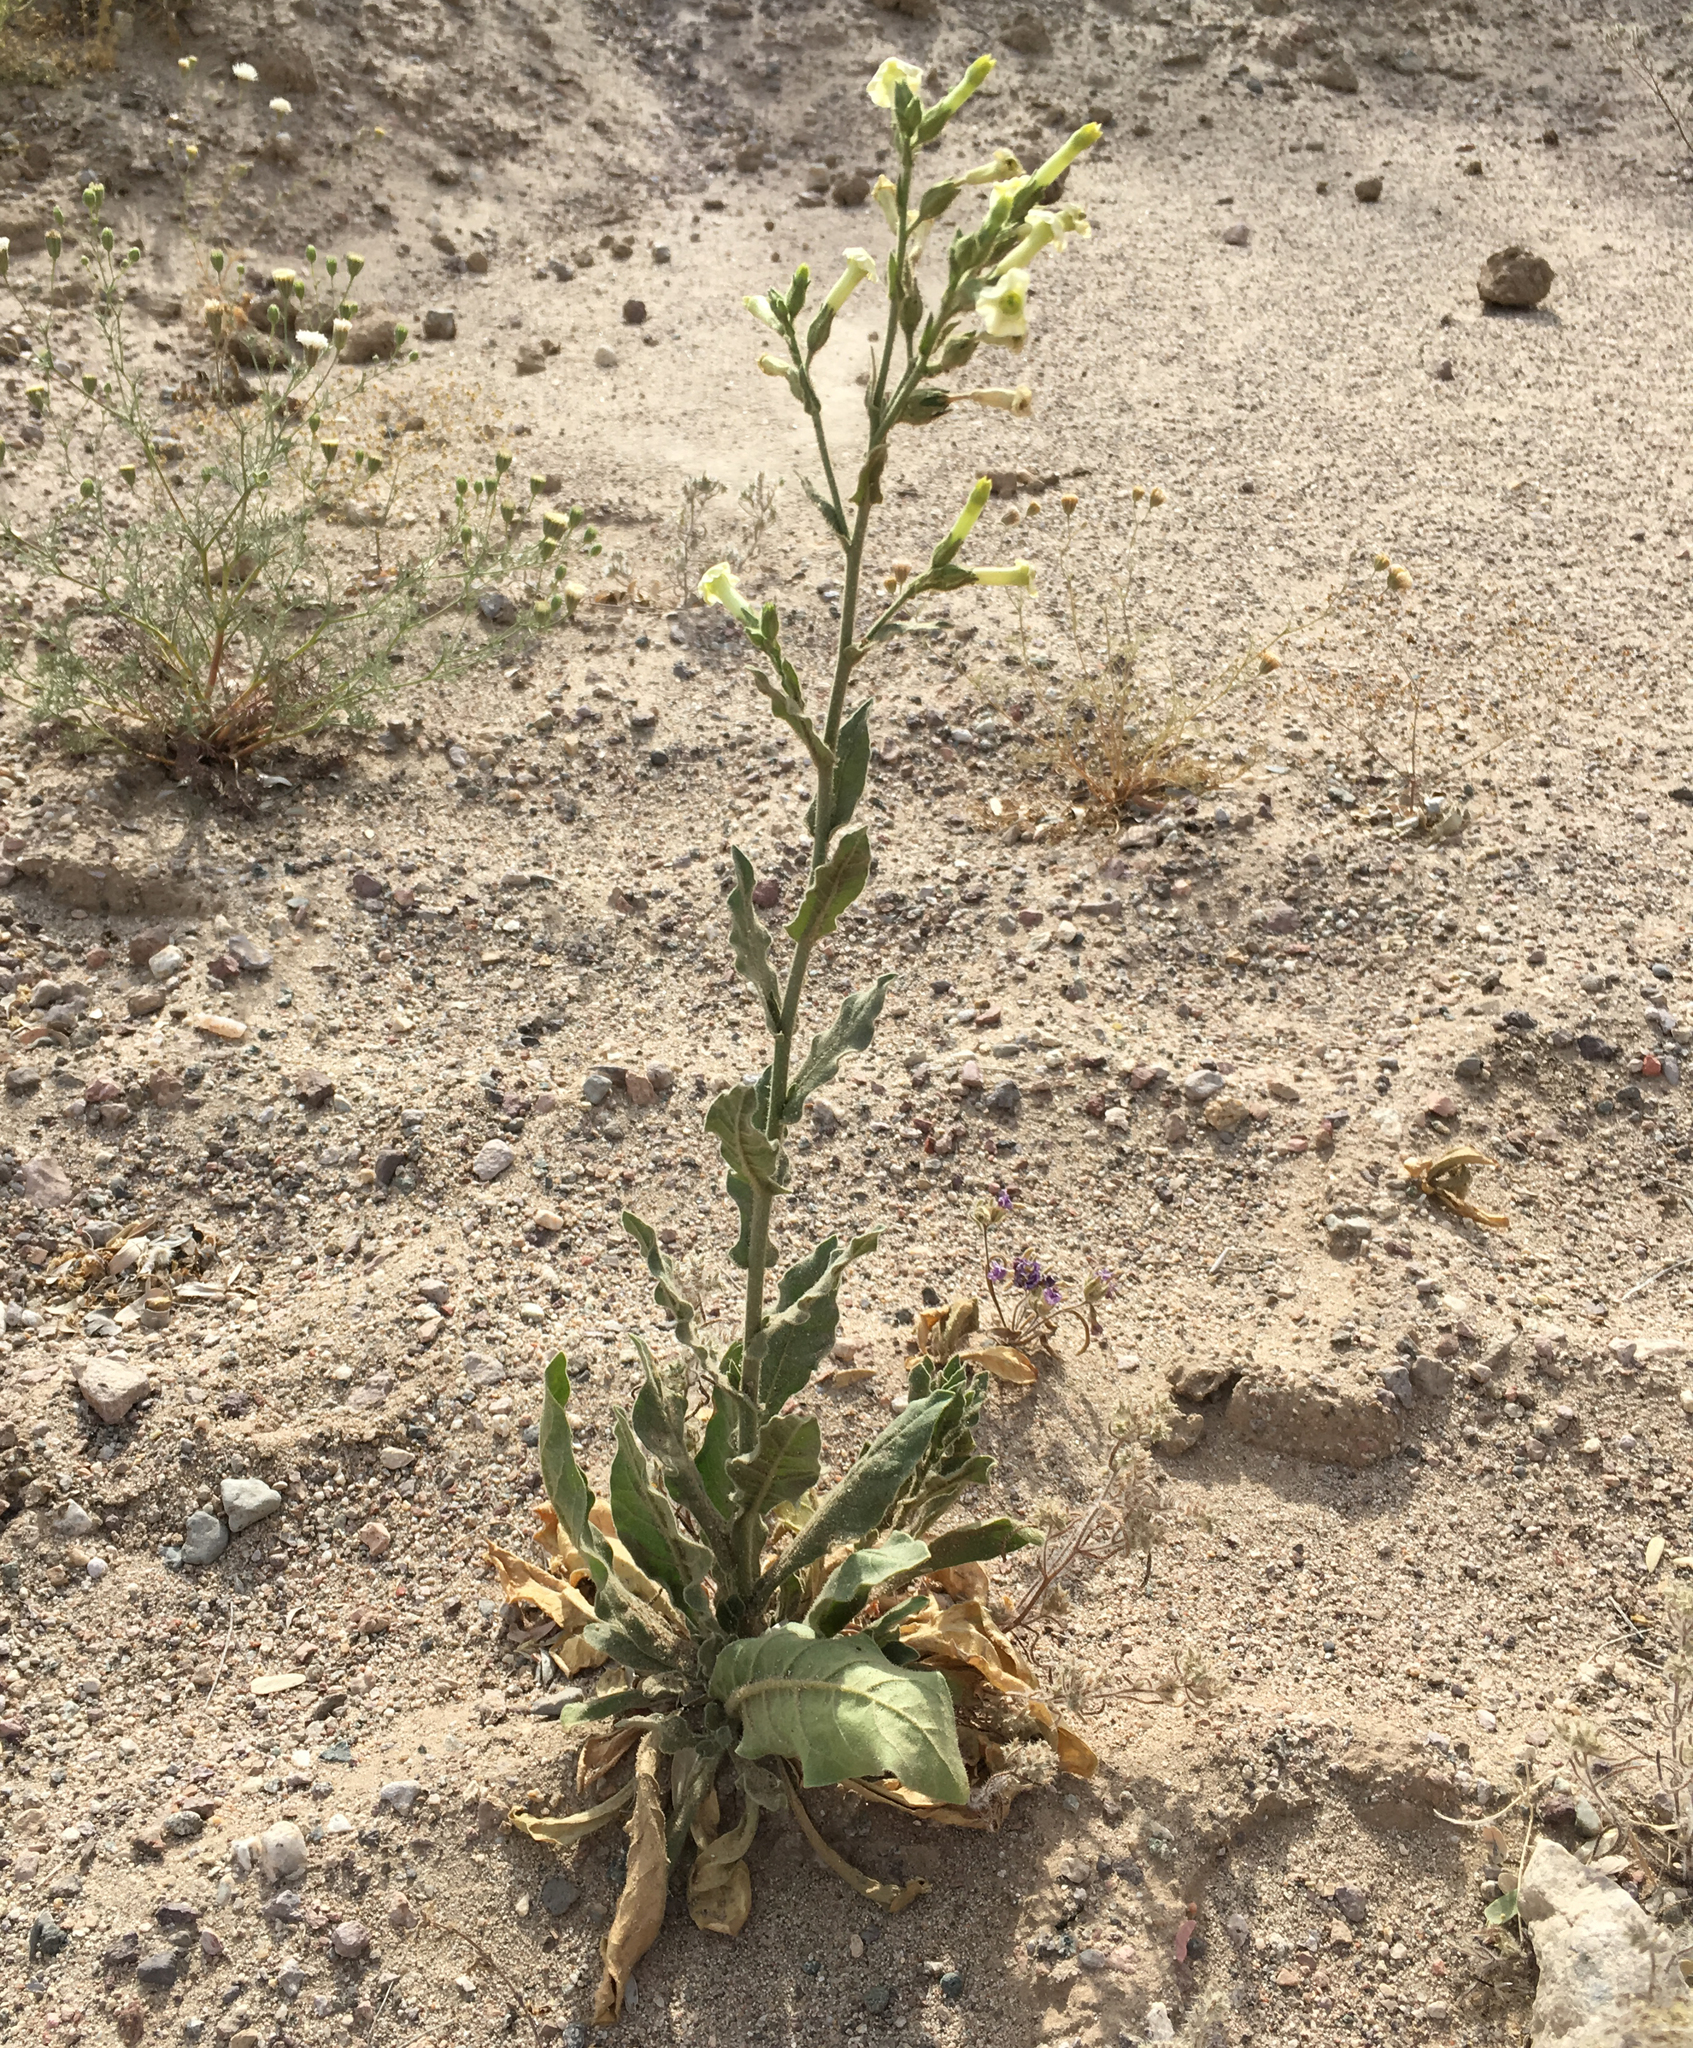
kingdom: Plantae
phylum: Tracheophyta
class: Magnoliopsida
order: Solanales
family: Solanaceae
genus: Nicotiana
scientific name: Nicotiana obtusifolia
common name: Desert tobacco
